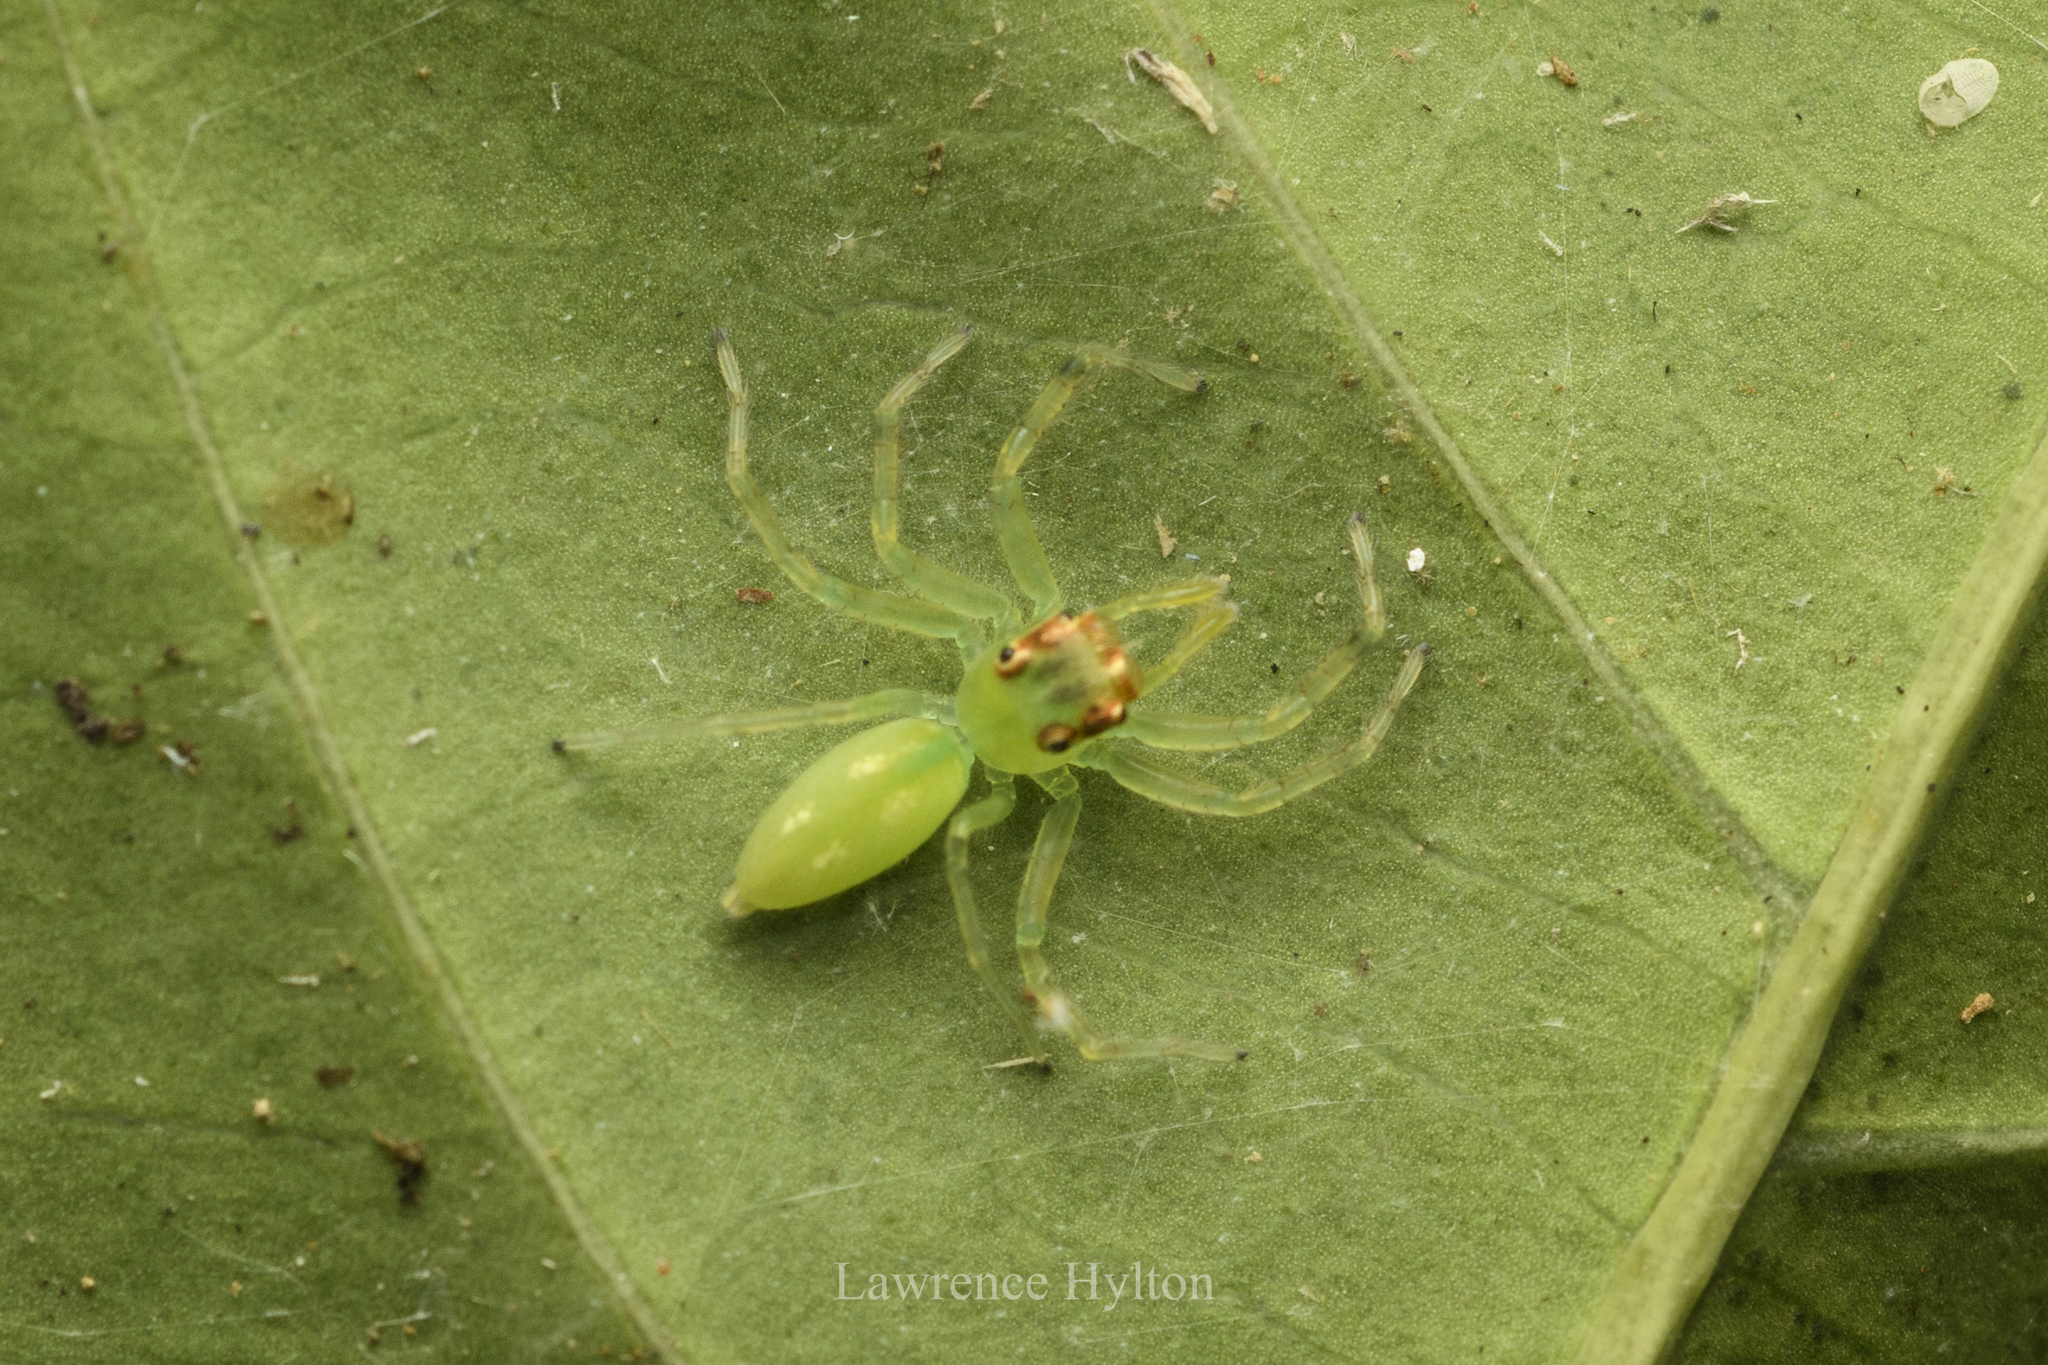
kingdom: Animalia
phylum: Arthropoda
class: Arachnida
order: Araneae
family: Salticidae
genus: Epeus
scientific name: Epeus glorius
